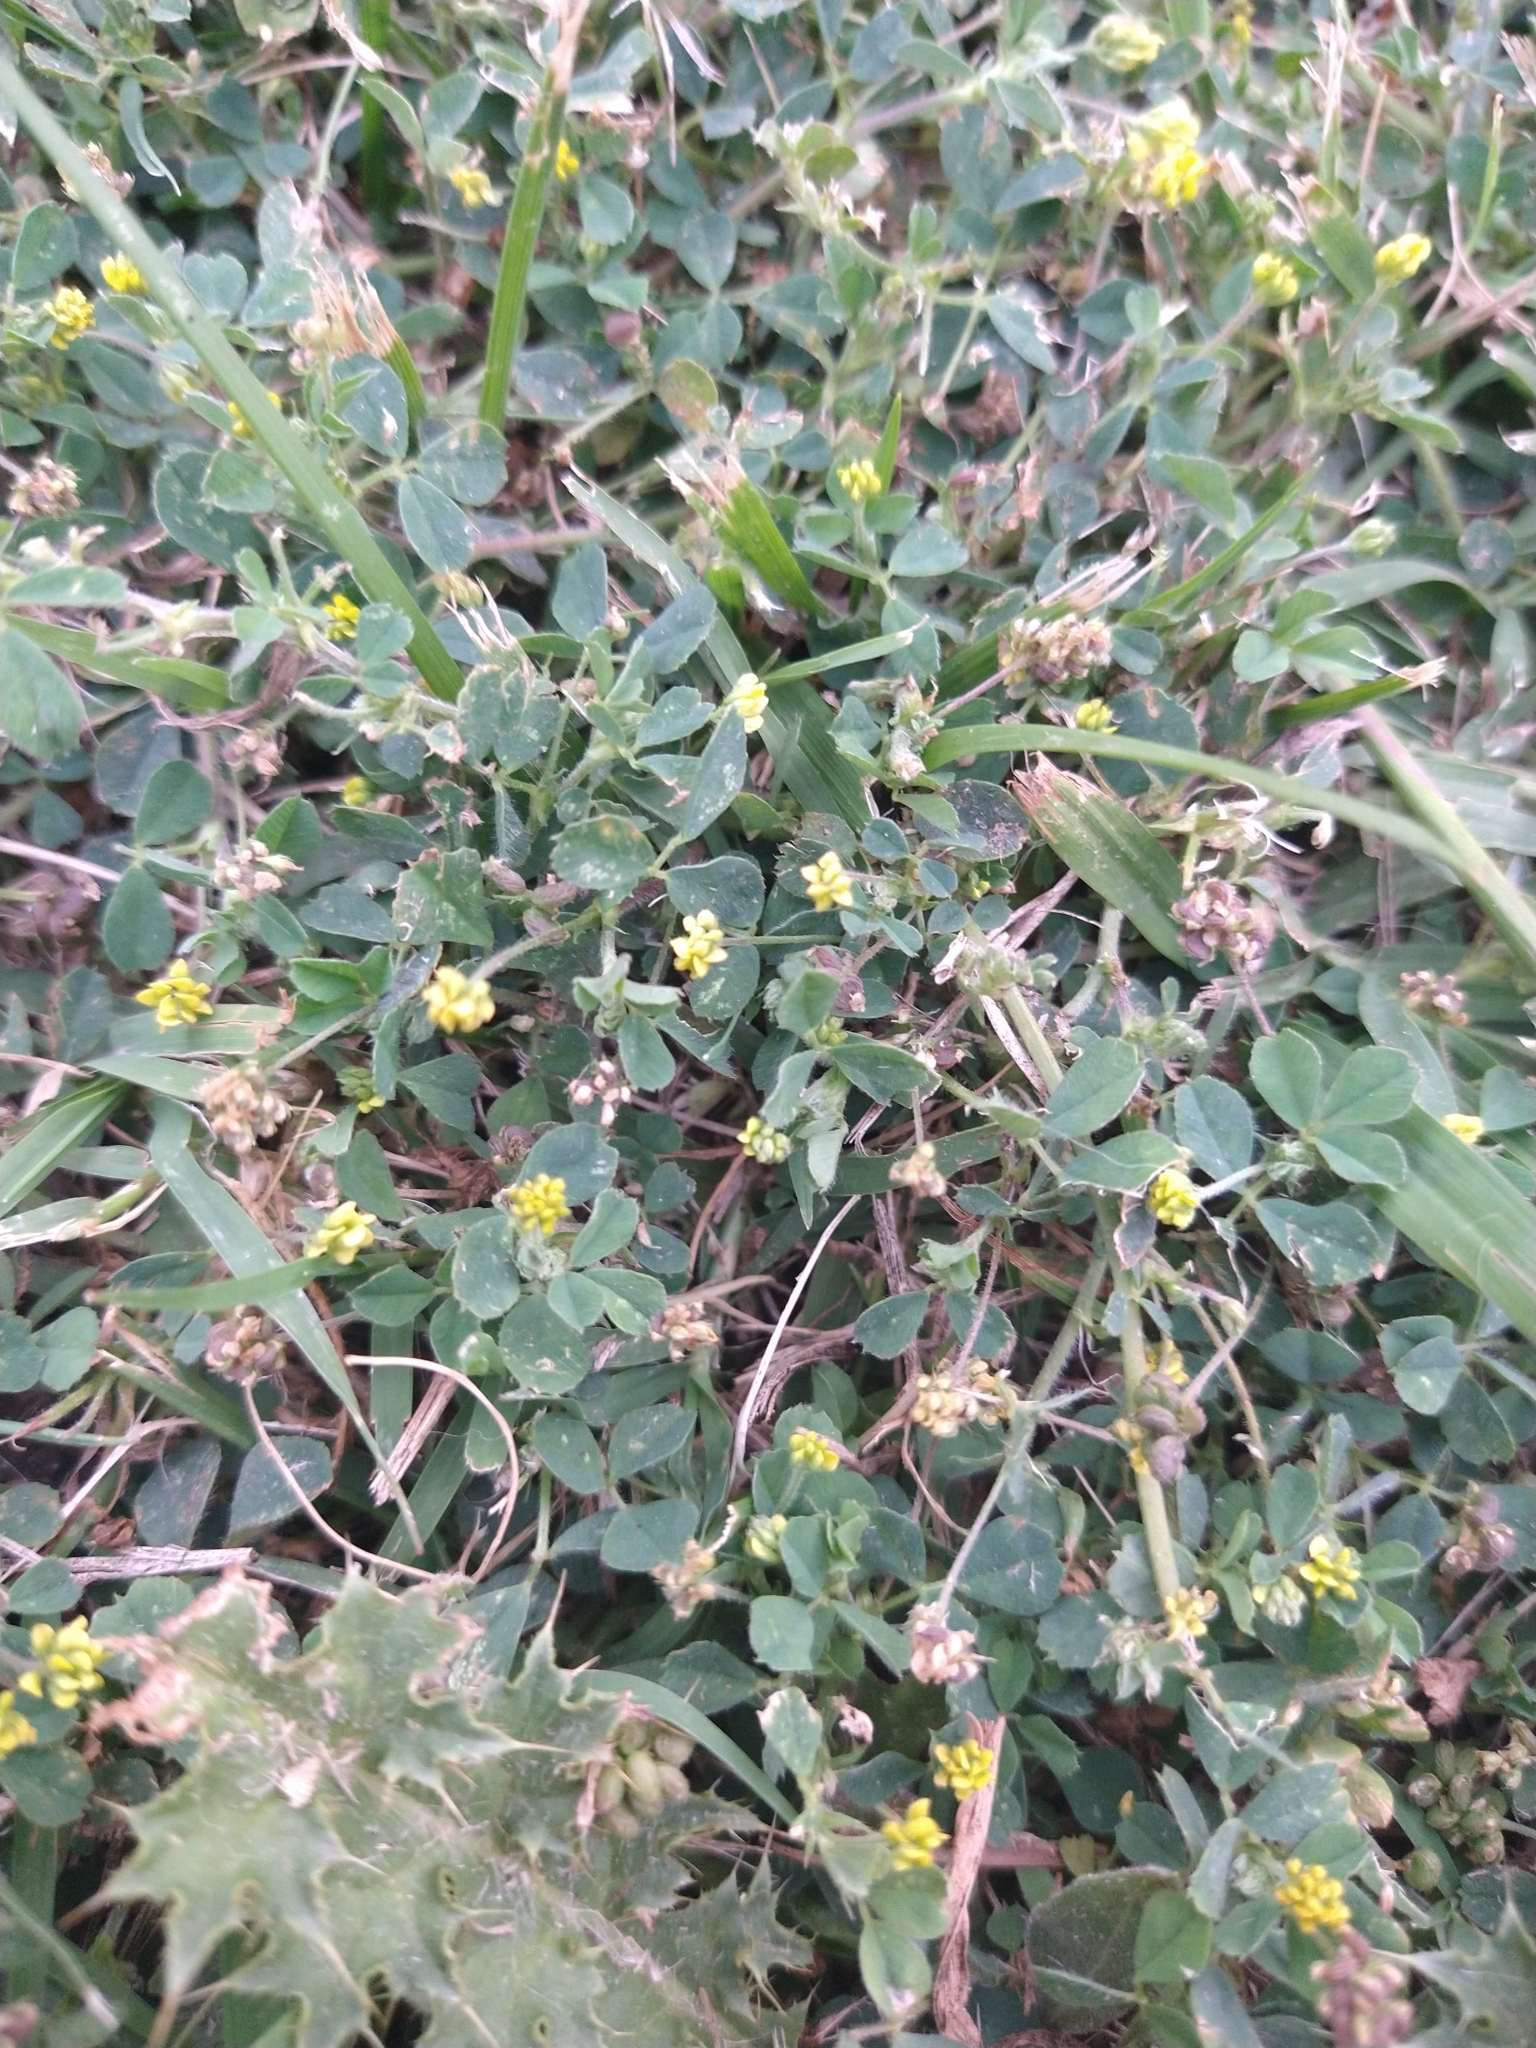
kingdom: Plantae
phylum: Tracheophyta
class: Magnoliopsida
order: Fabales
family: Fabaceae
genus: Medicago
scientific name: Medicago lupulina
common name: Black medick
